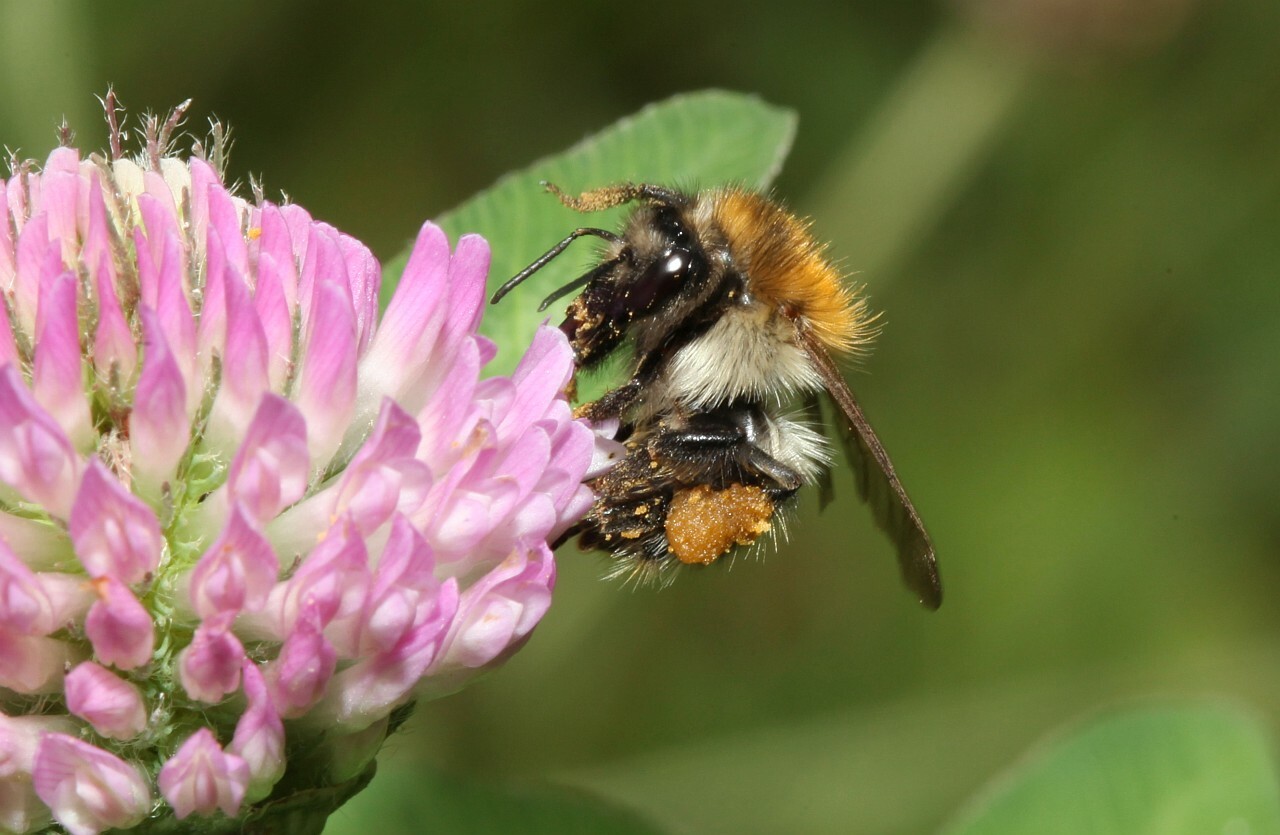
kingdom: Animalia
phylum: Arthropoda
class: Insecta
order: Hymenoptera
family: Apidae
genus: Bombus
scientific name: Bombus pascuorum
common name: Common carder bee
